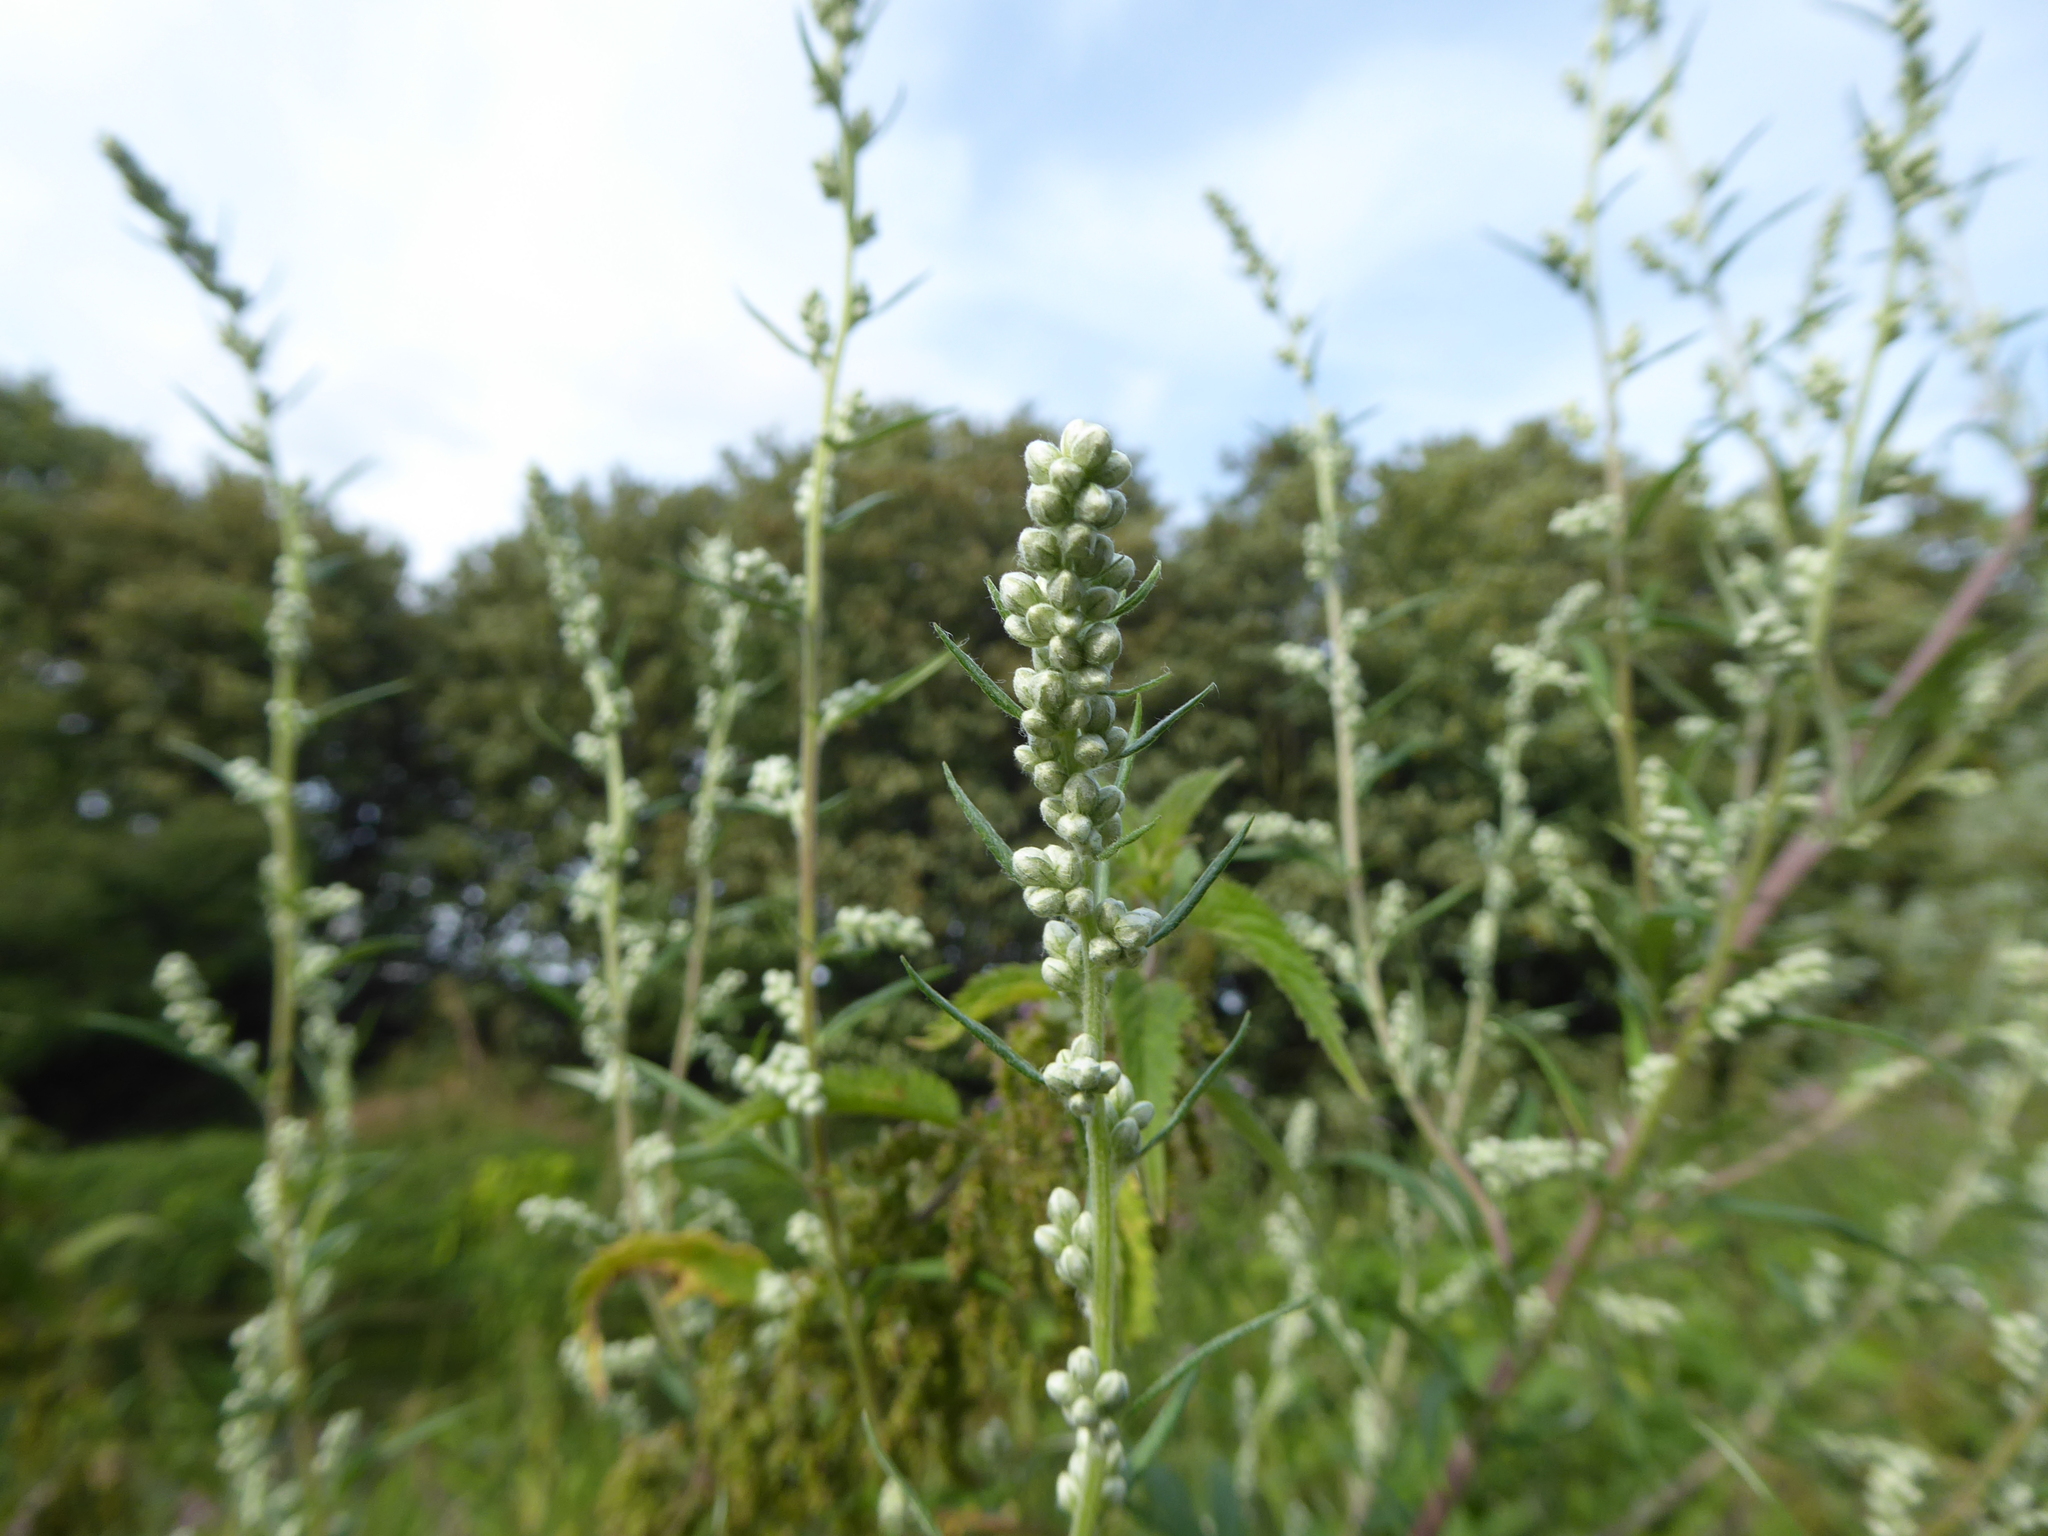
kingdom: Plantae
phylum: Tracheophyta
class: Magnoliopsida
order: Asterales
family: Asteraceae
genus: Artemisia
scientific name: Artemisia vulgaris
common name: Mugwort
